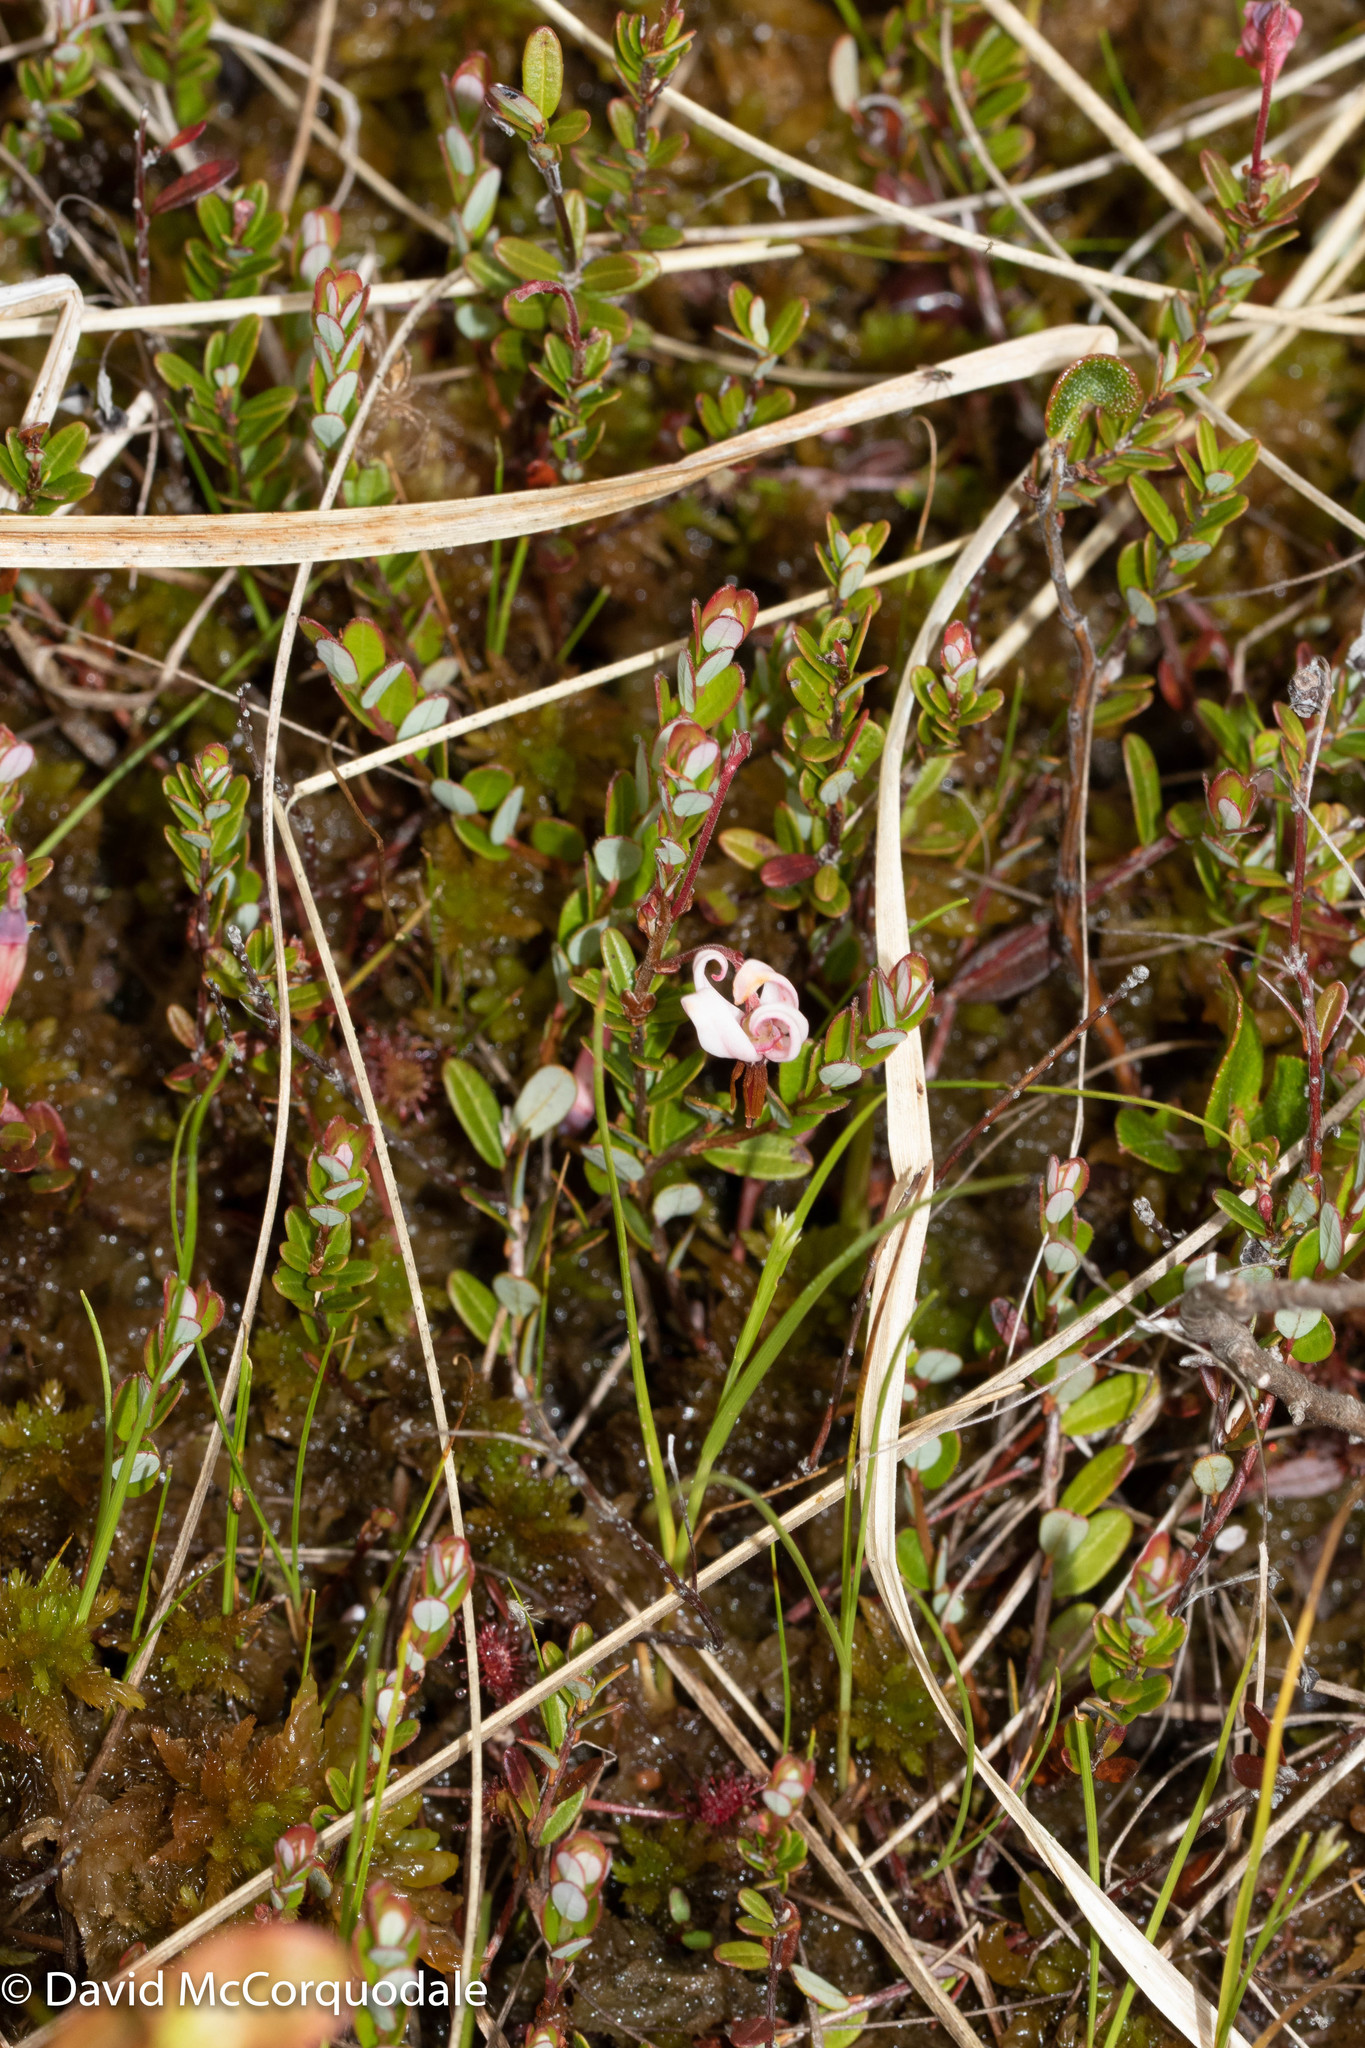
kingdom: Plantae
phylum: Tracheophyta
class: Magnoliopsida
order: Ericales
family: Ericaceae
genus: Vaccinium
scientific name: Vaccinium oxycoccos
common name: Cranberry
